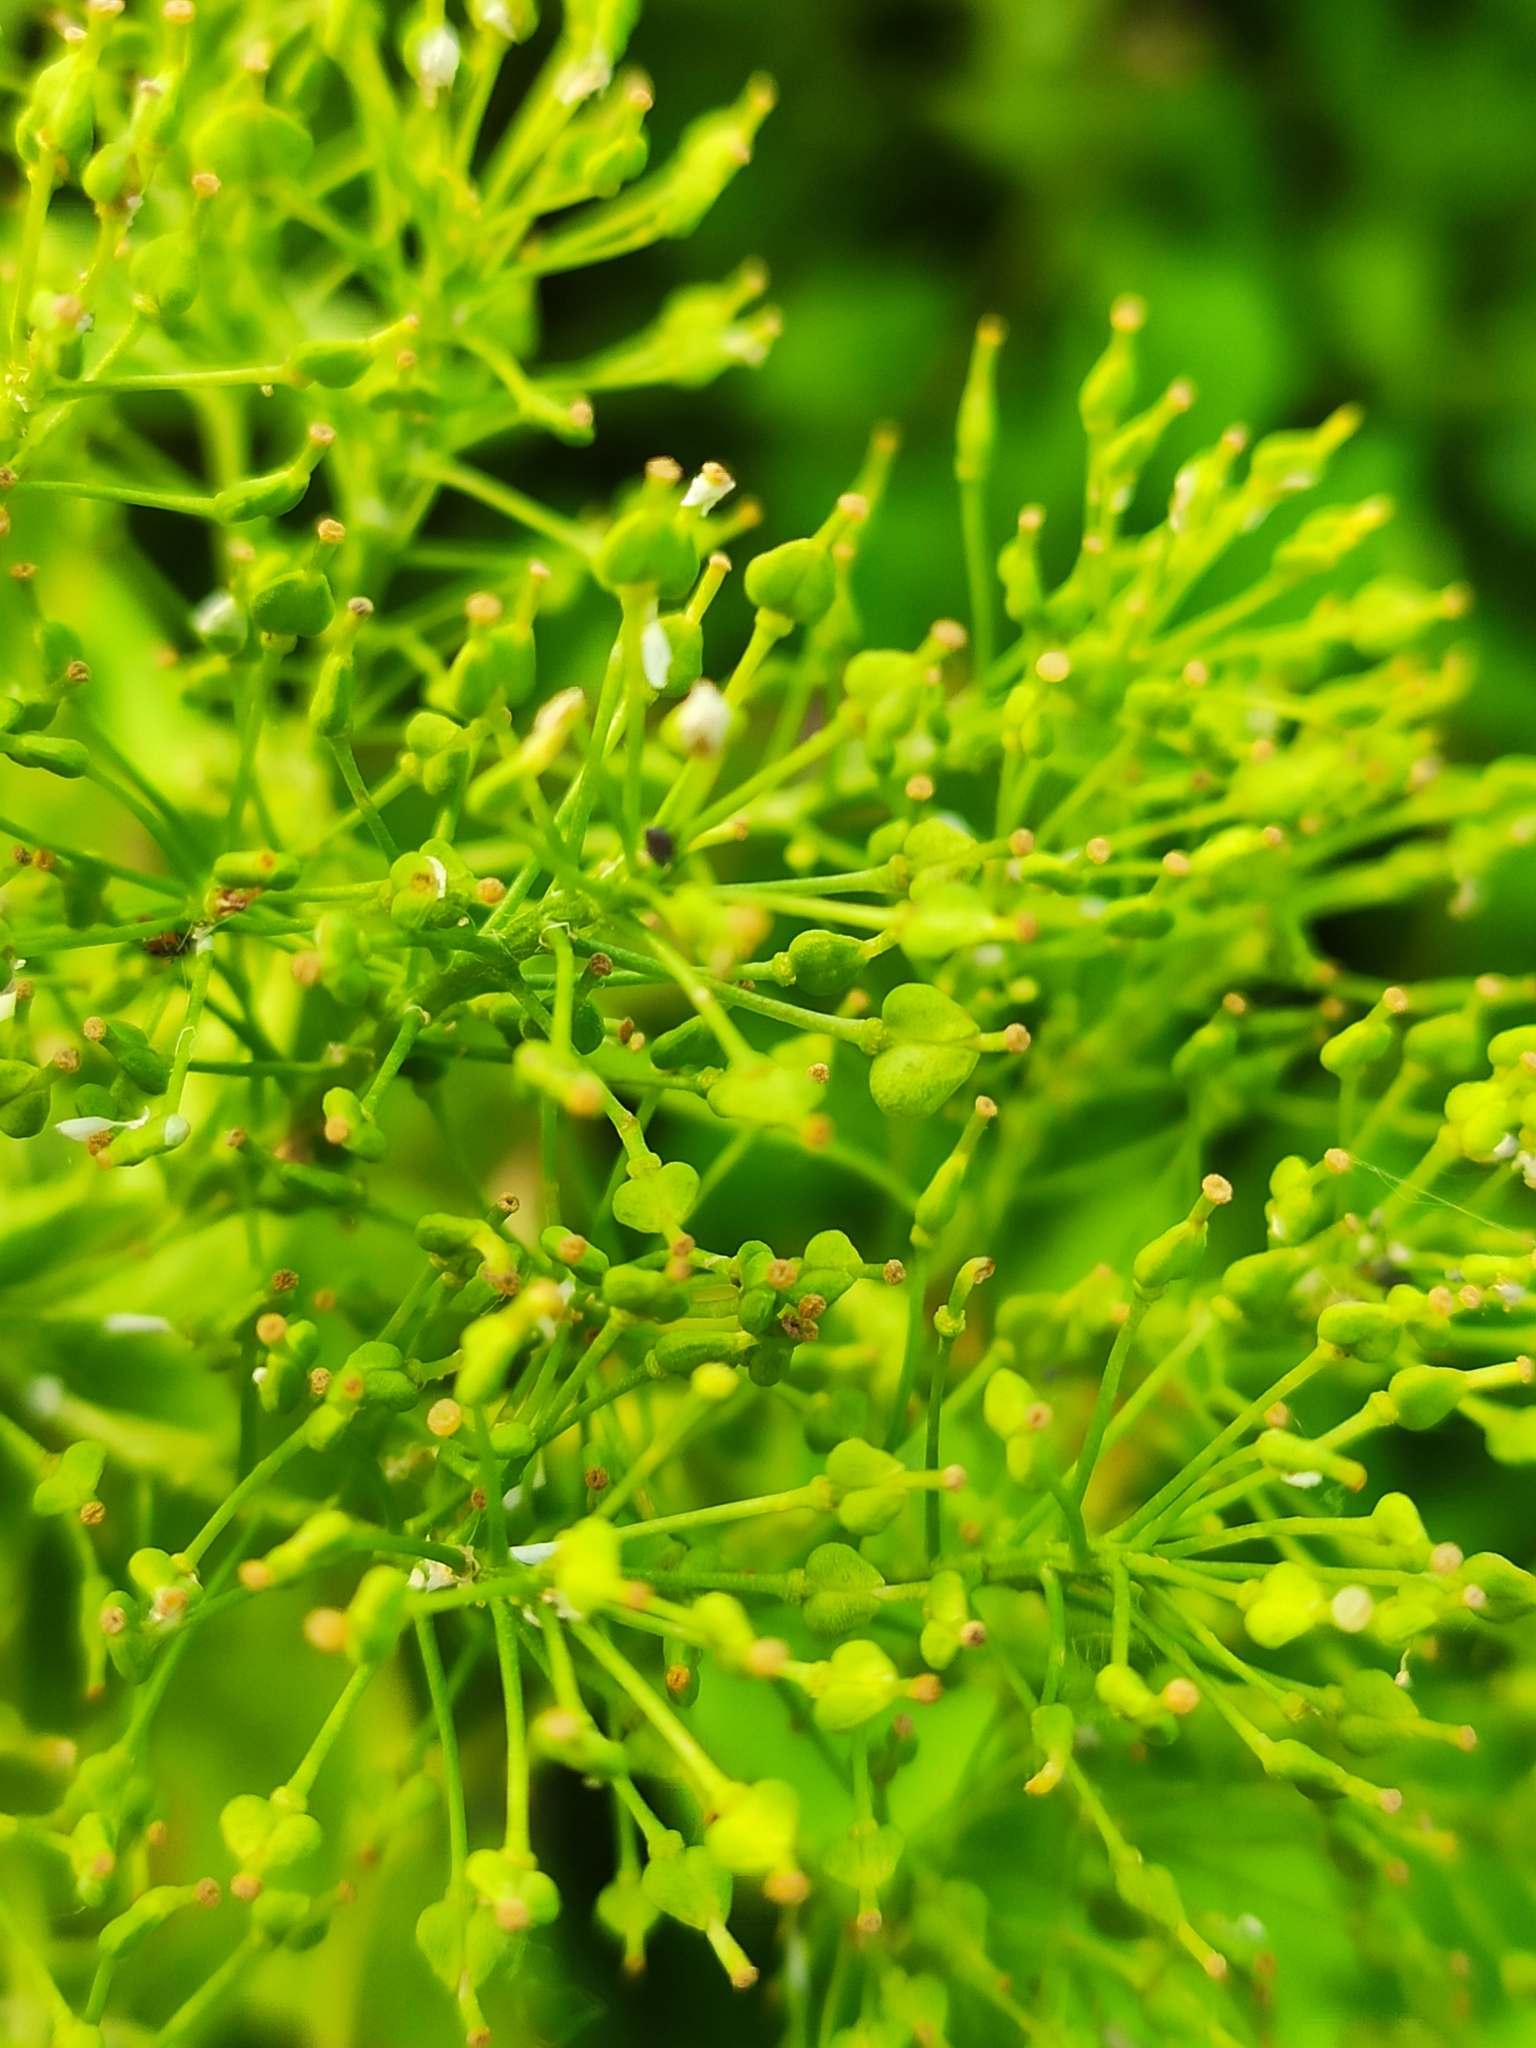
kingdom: Plantae
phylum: Tracheophyta
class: Magnoliopsida
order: Brassicales
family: Brassicaceae
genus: Lepidium
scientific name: Lepidium draba
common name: Hoary cress
